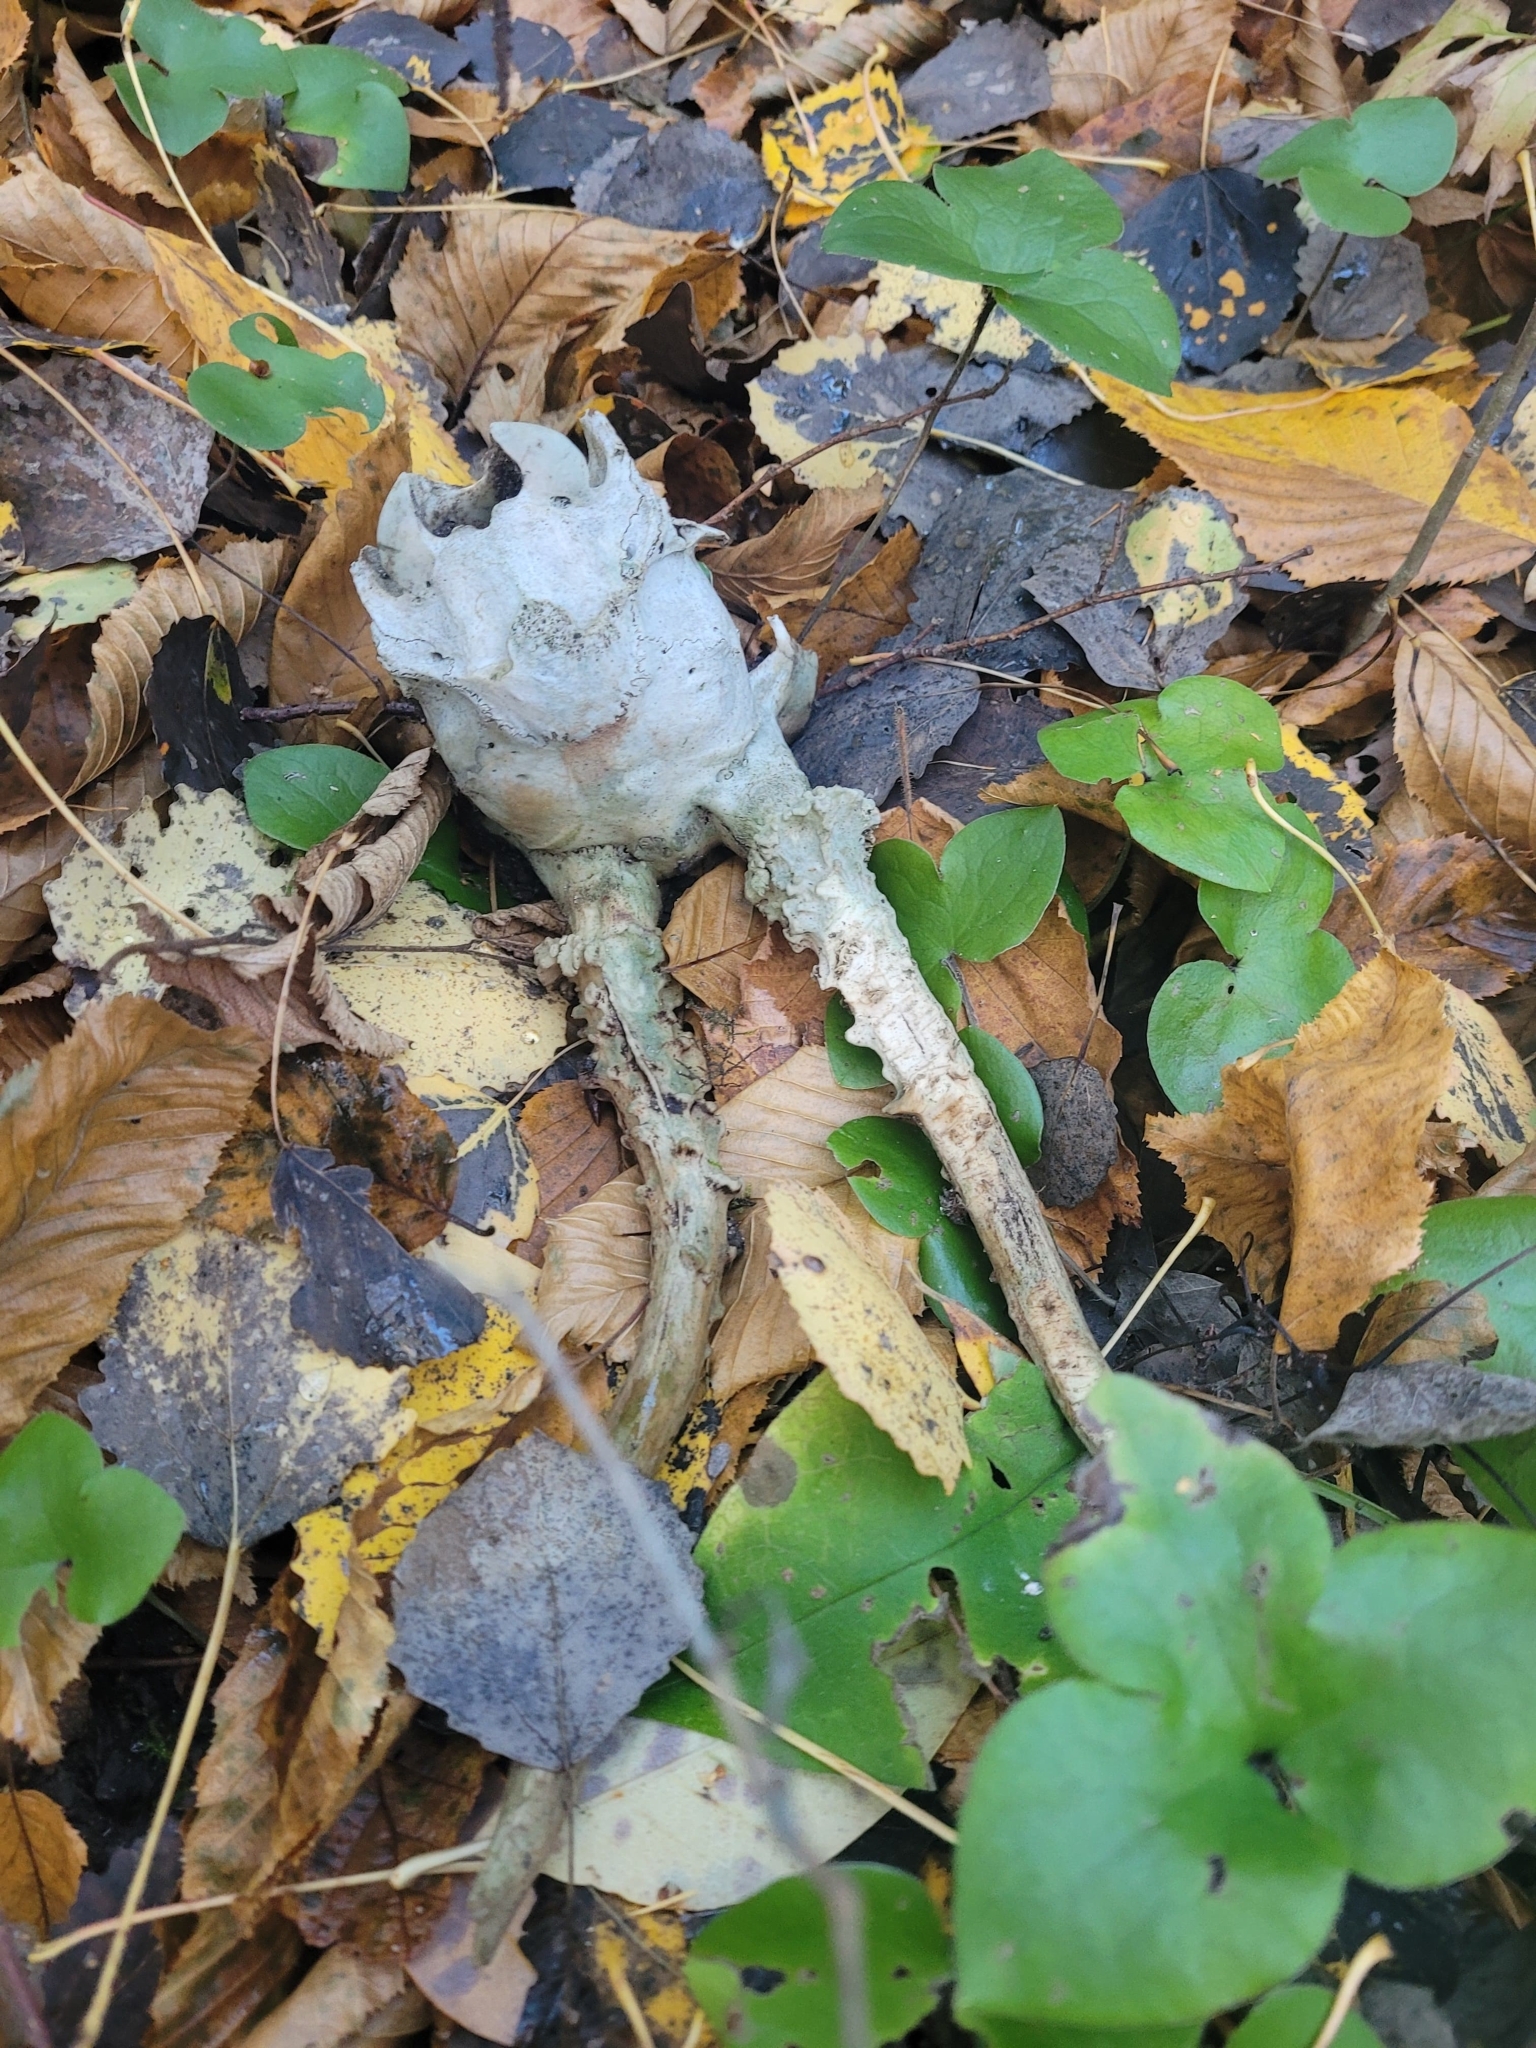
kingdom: Animalia
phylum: Chordata
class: Mammalia
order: Artiodactyla
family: Cervidae
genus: Capreolus
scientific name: Capreolus capreolus
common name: Western roe deer
